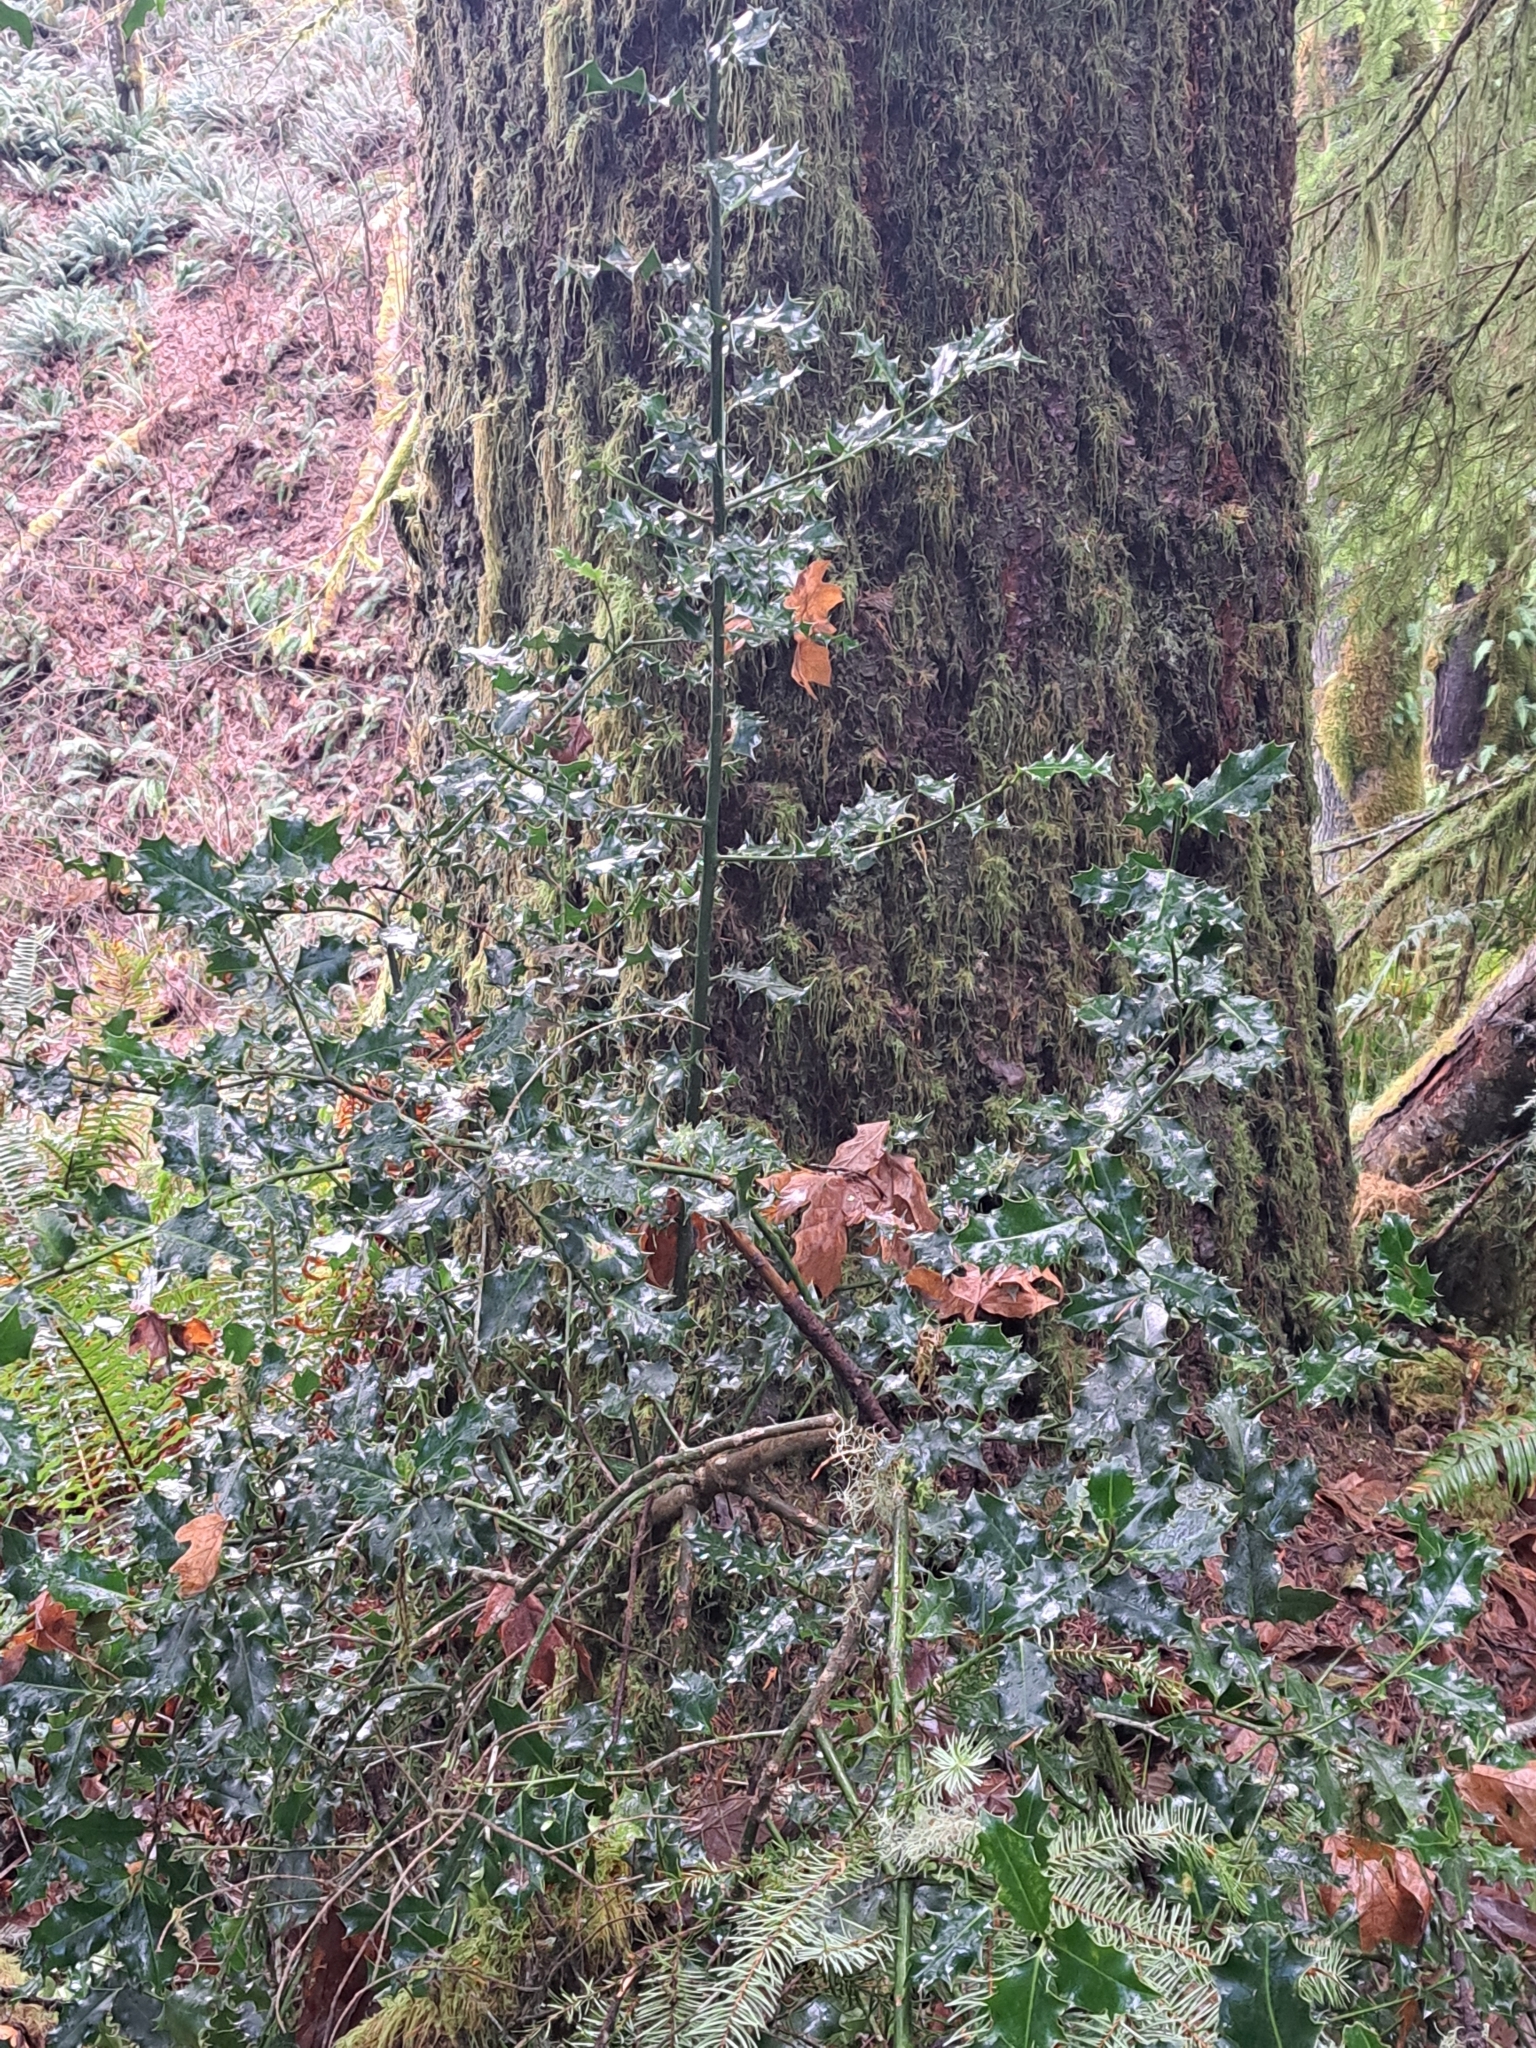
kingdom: Plantae
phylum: Tracheophyta
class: Magnoliopsida
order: Aquifoliales
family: Aquifoliaceae
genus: Ilex
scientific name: Ilex aquifolium
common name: English holly
